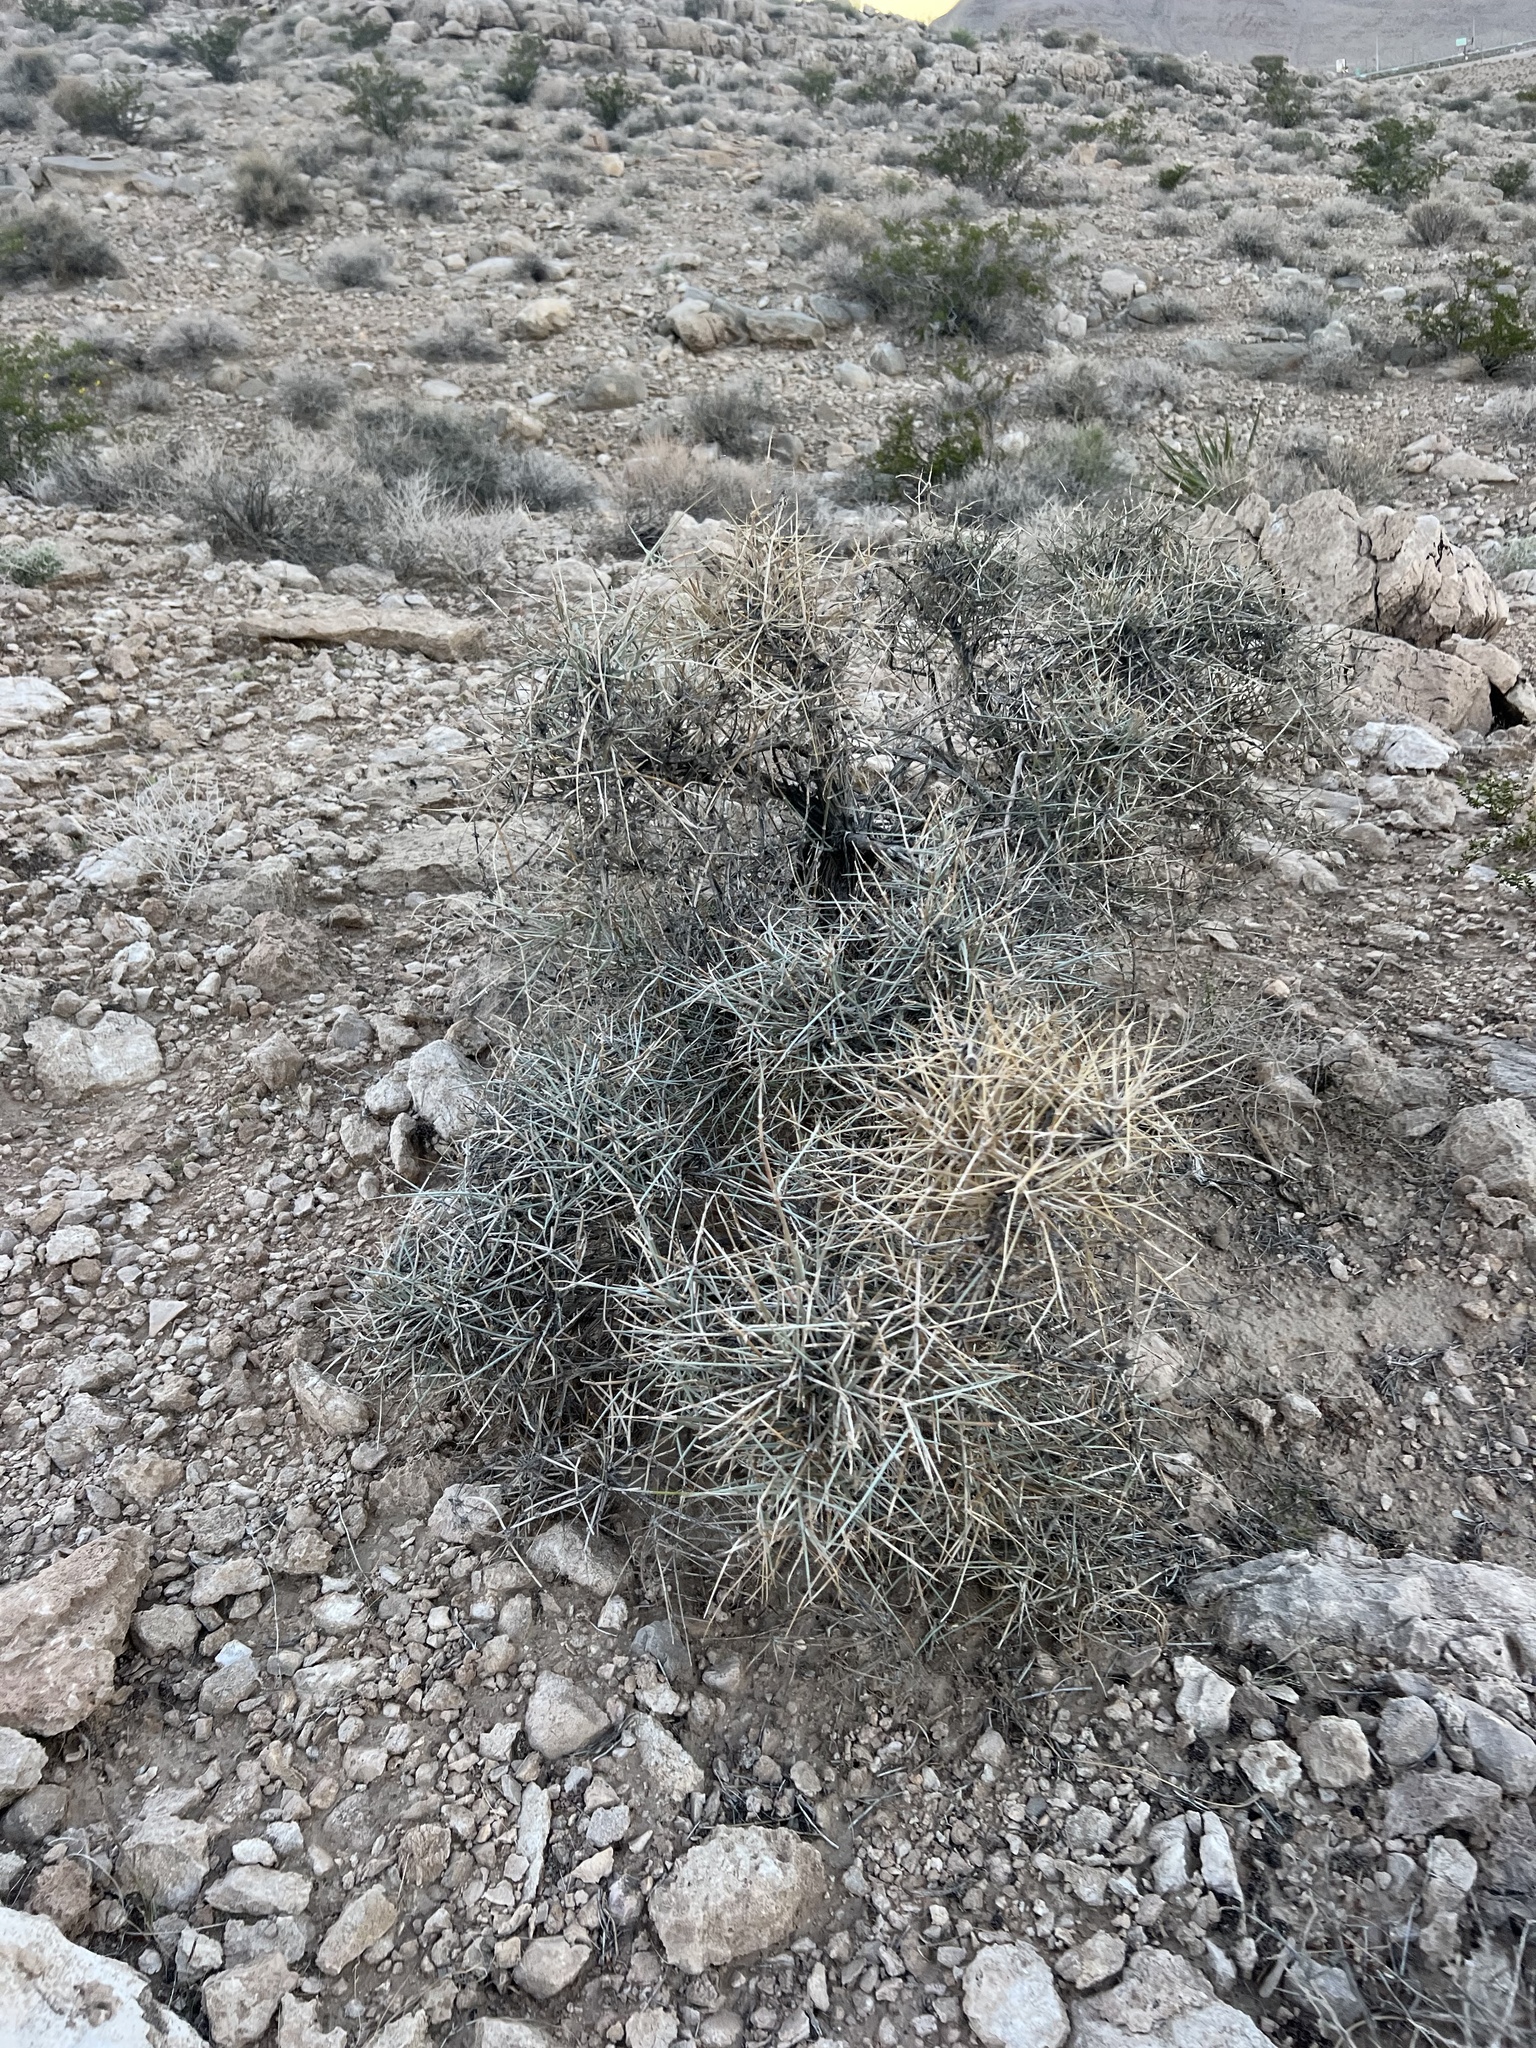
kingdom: Plantae
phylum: Tracheophyta
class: Gnetopsida
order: Ephedrales
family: Ephedraceae
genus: Ephedra
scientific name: Ephedra nevadensis
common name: Gray ephedra
